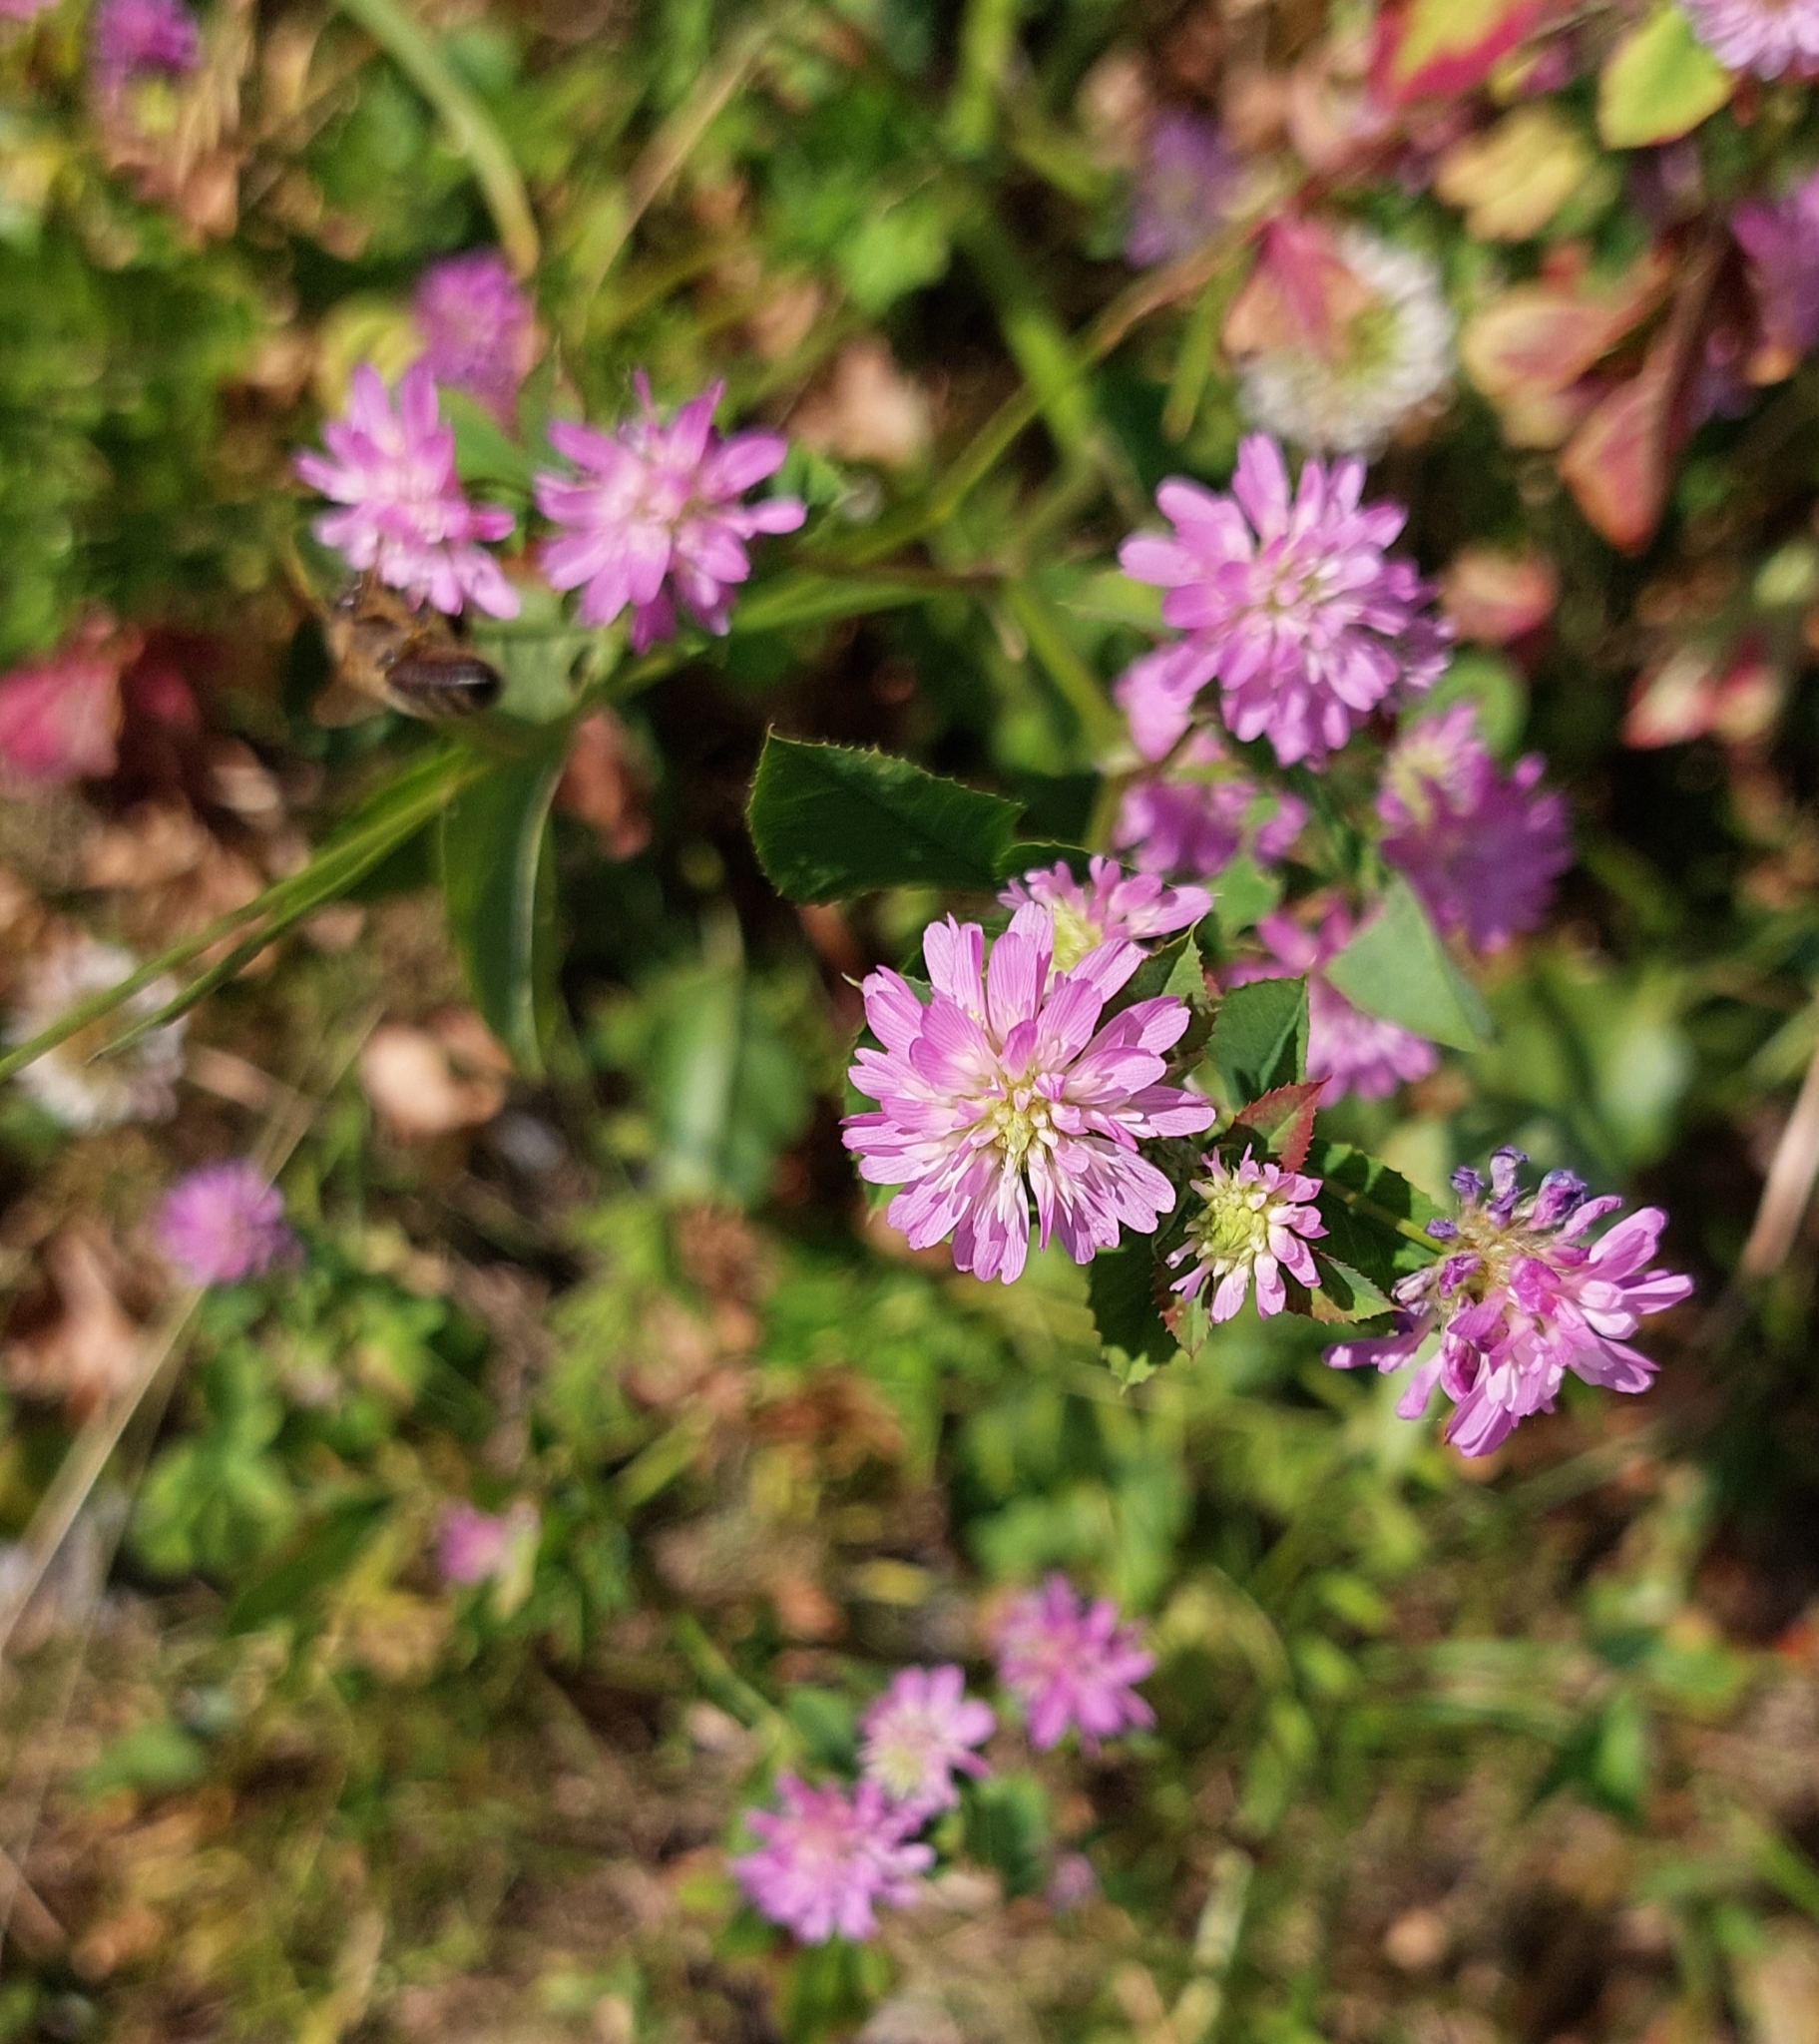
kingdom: Plantae
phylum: Tracheophyta
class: Magnoliopsida
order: Fabales
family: Fabaceae
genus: Trifolium
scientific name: Trifolium resupinatum
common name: Reversed clover
